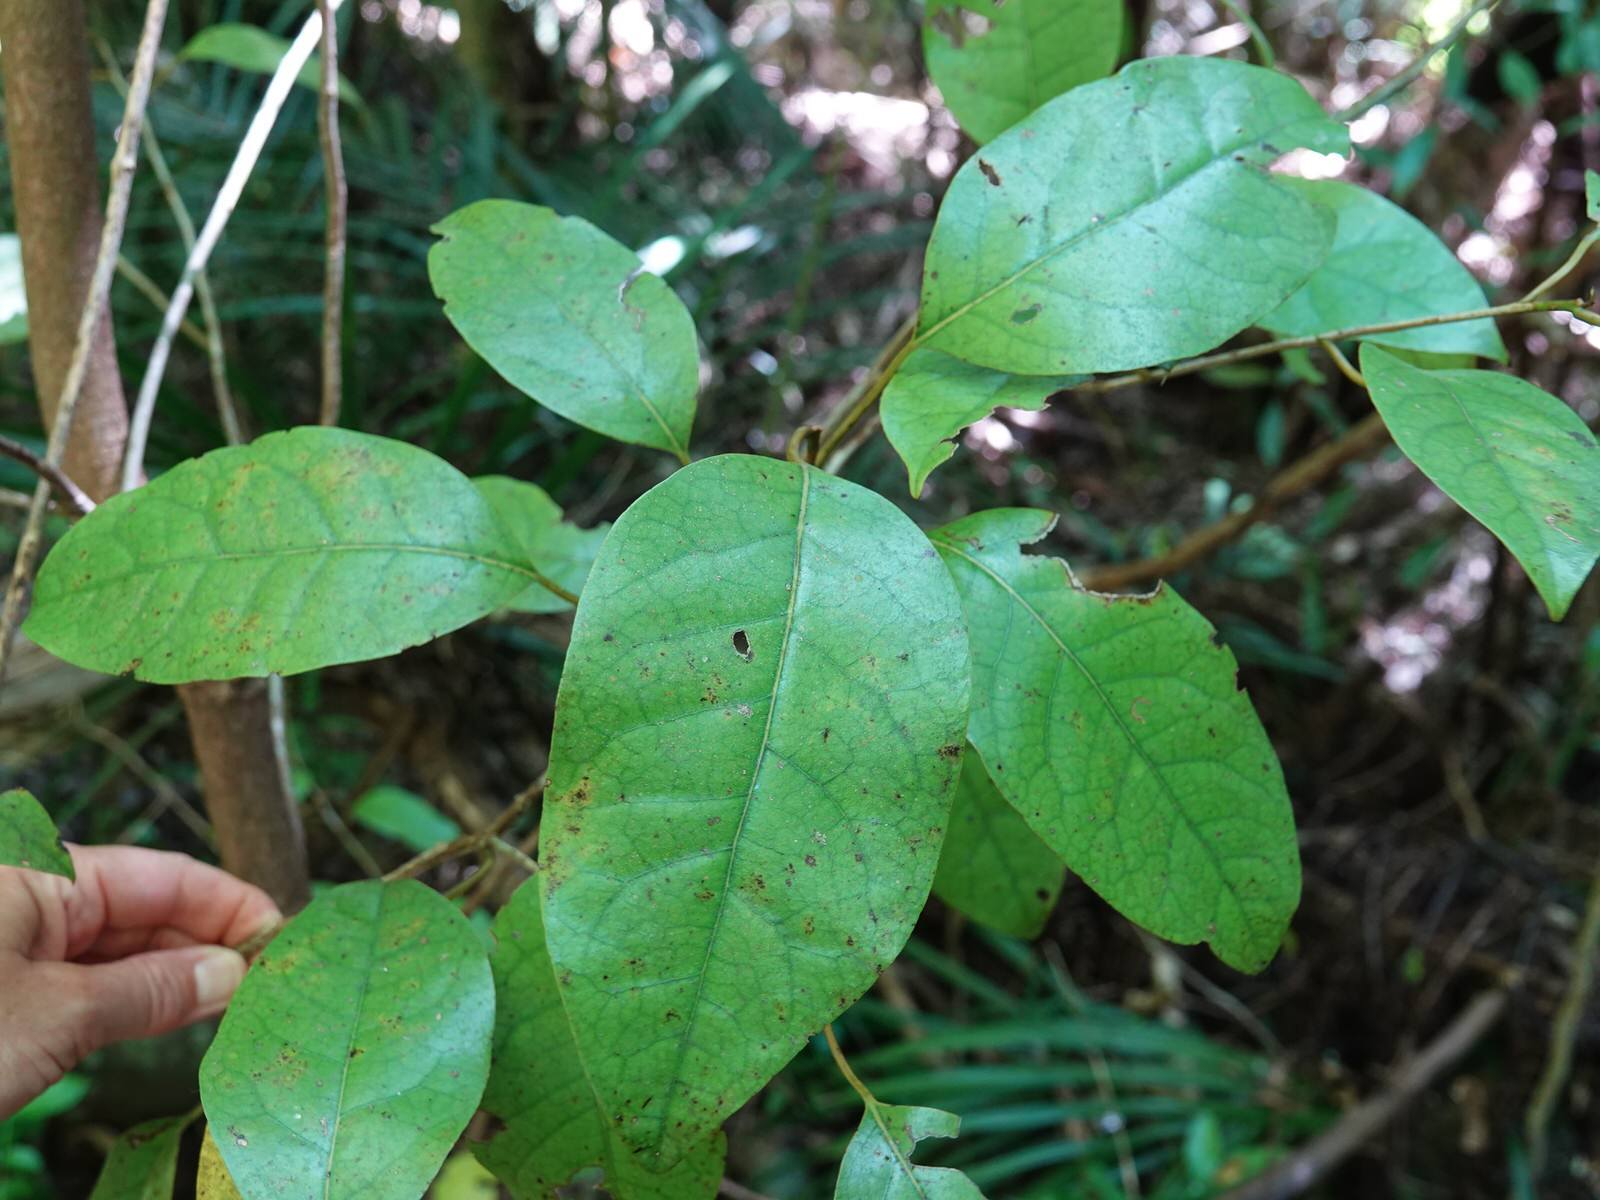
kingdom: Plantae
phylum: Tracheophyta
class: Magnoliopsida
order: Laurales
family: Lauraceae
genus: Litsea
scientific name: Litsea calicaris
